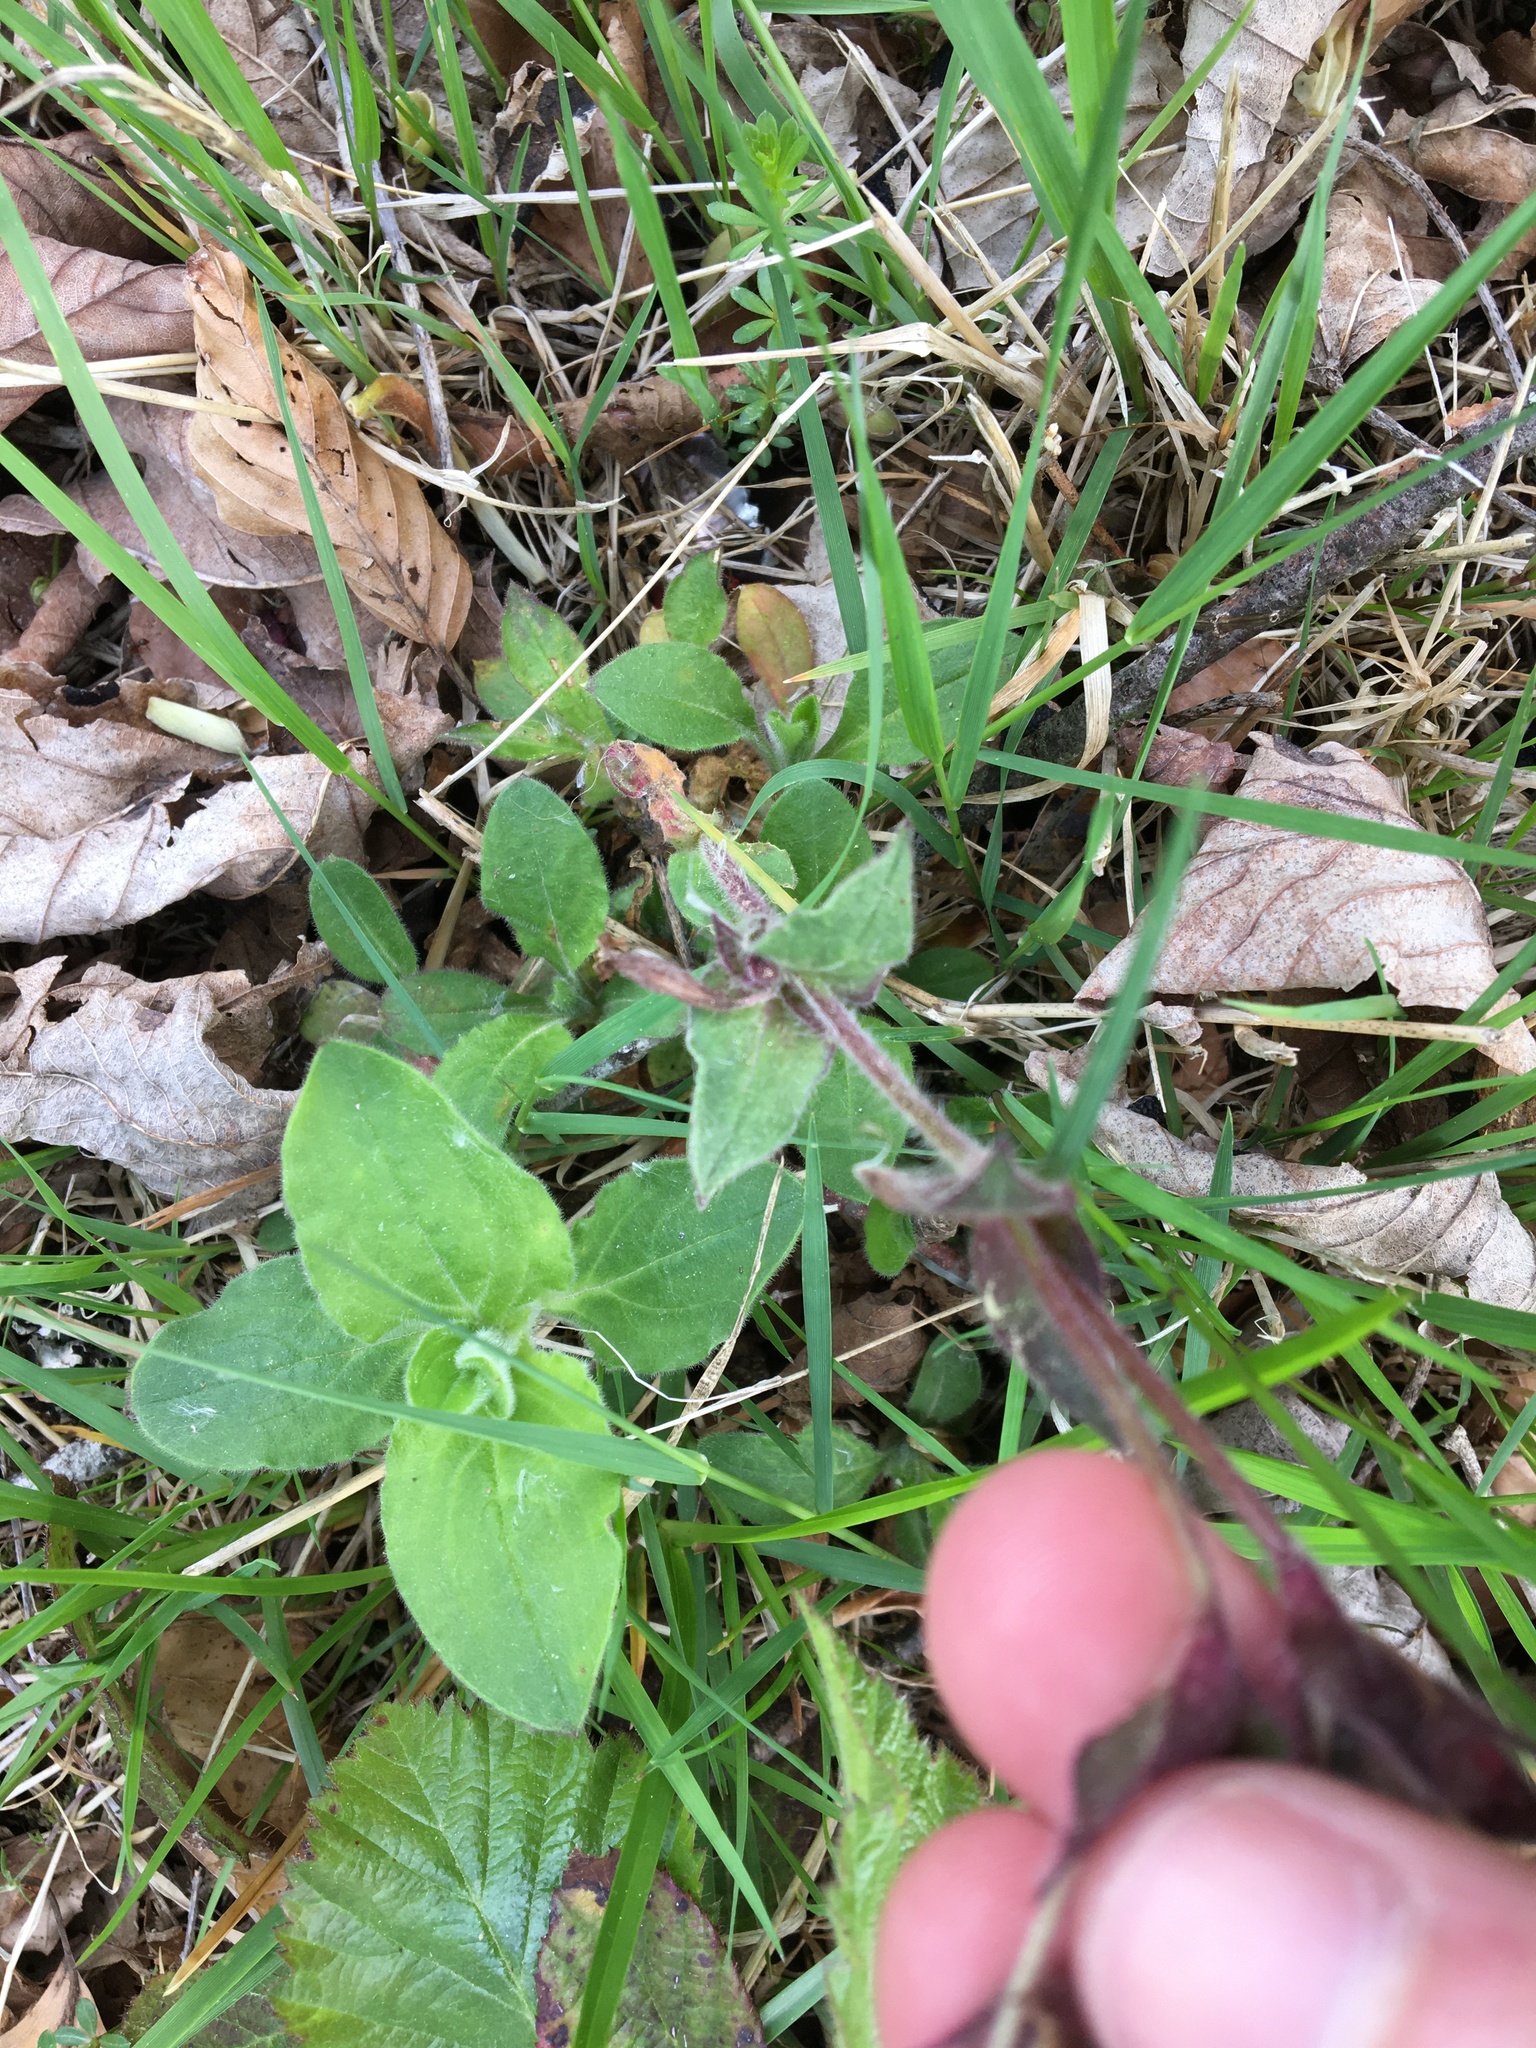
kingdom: Plantae
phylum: Tracheophyta
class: Magnoliopsida
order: Caryophyllales
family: Caryophyllaceae
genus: Silene
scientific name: Silene dioica
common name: Red campion
